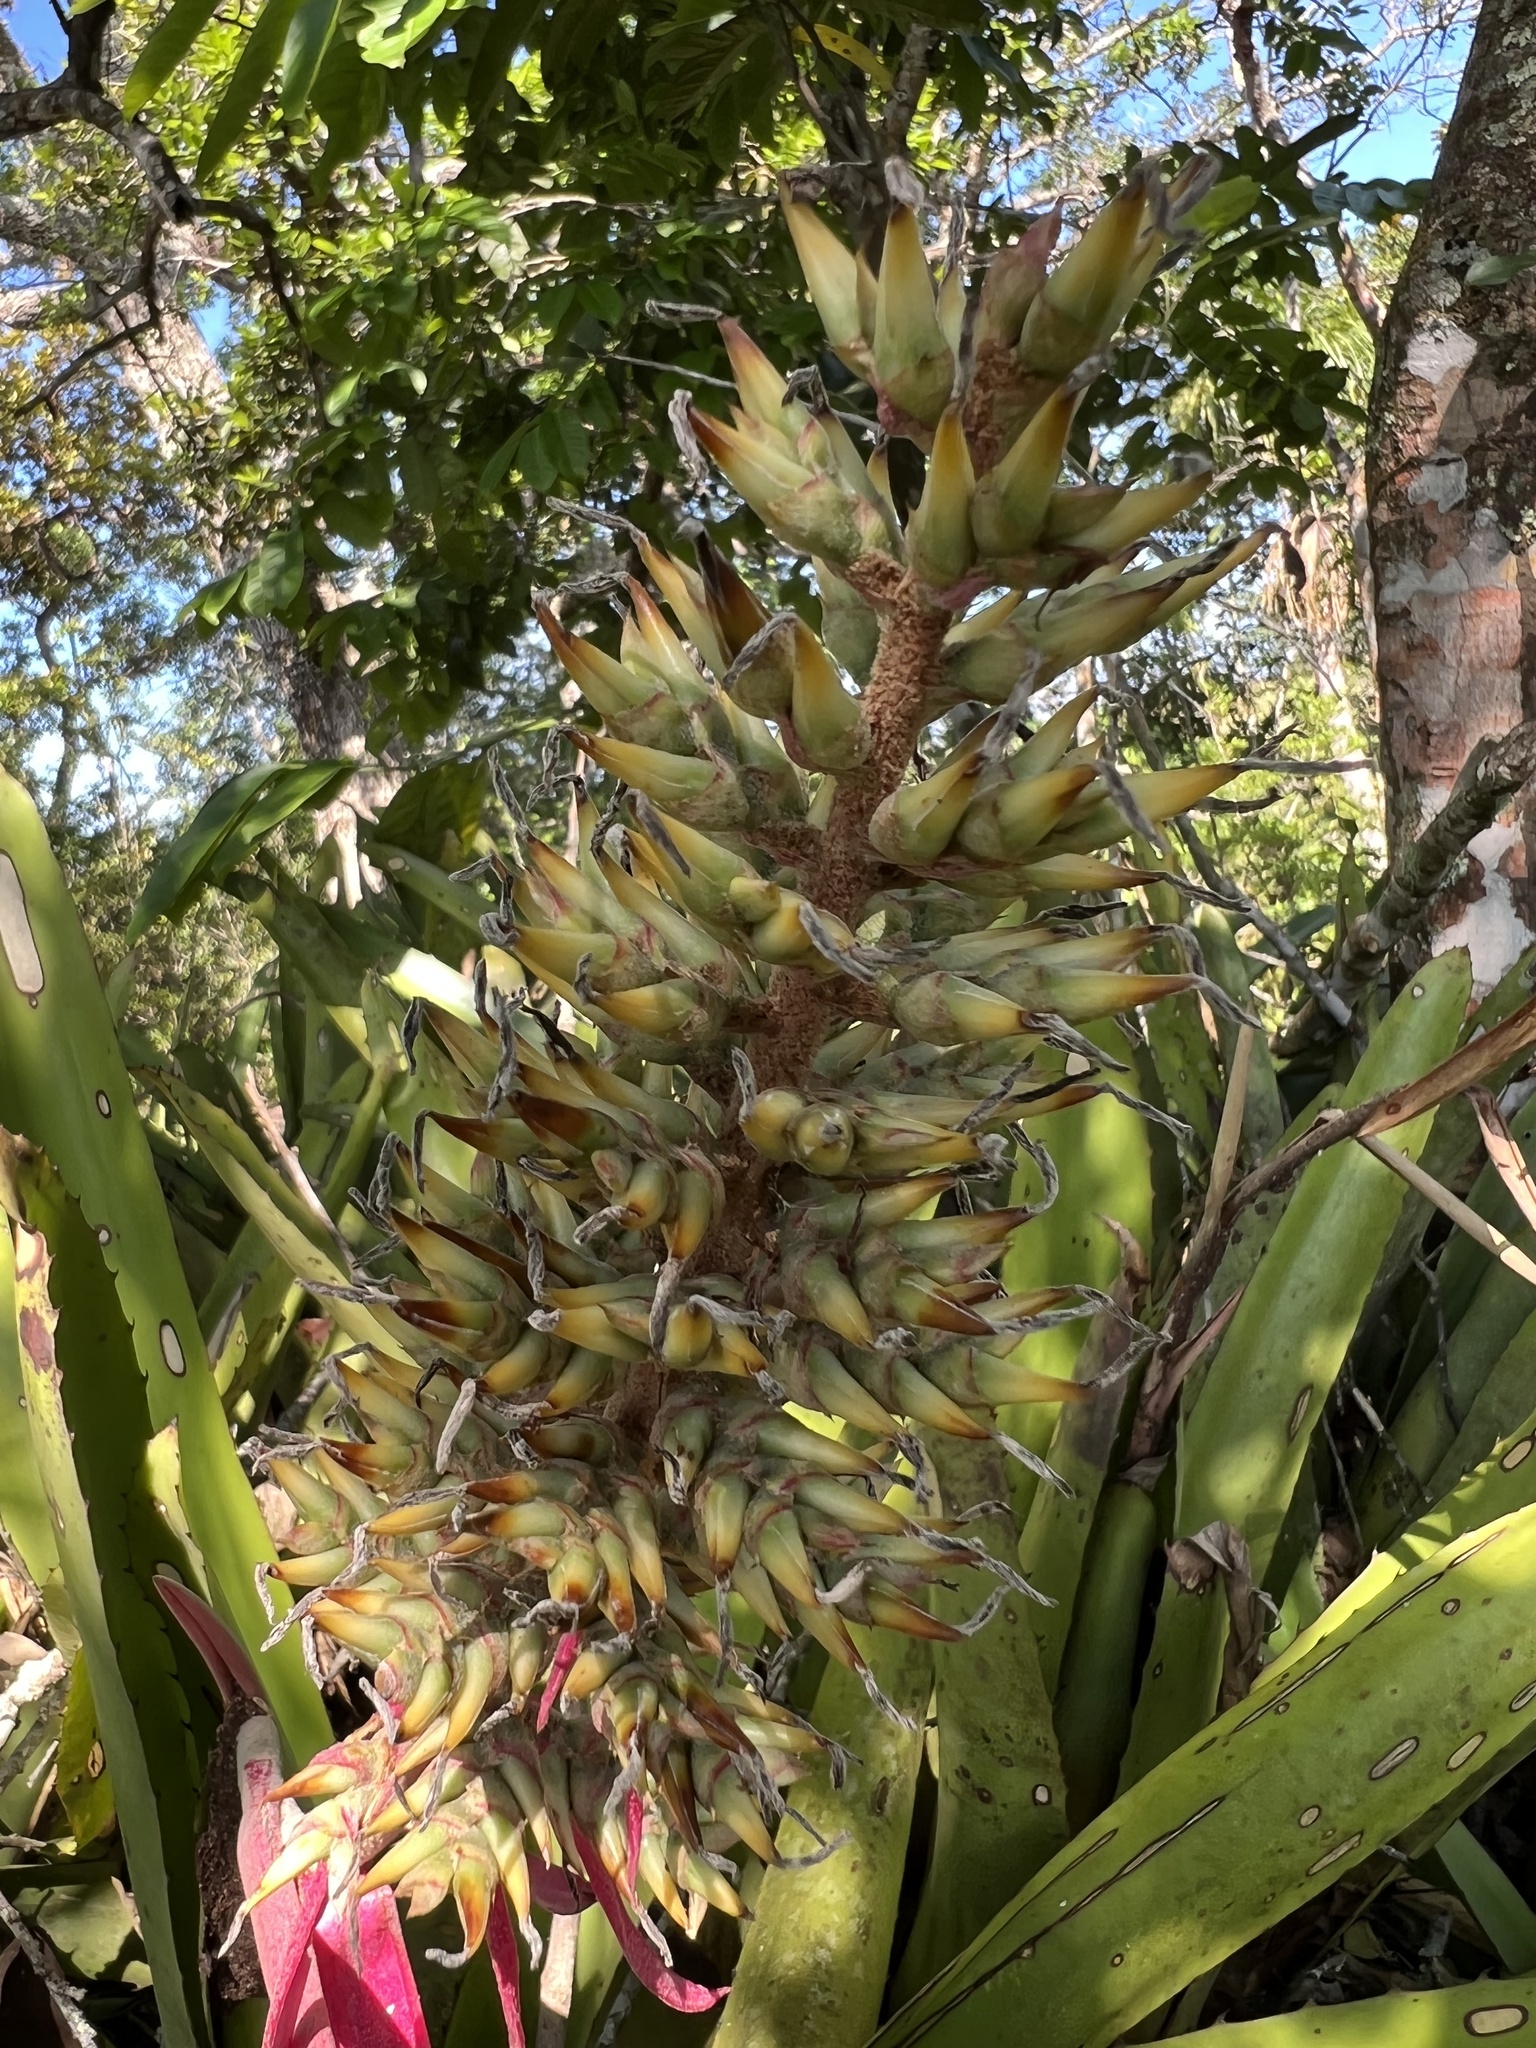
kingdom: Plantae
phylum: Tracheophyta
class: Liliopsida
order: Poales
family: Bromeliaceae
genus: Aechmea
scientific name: Aechmea stenosepala
